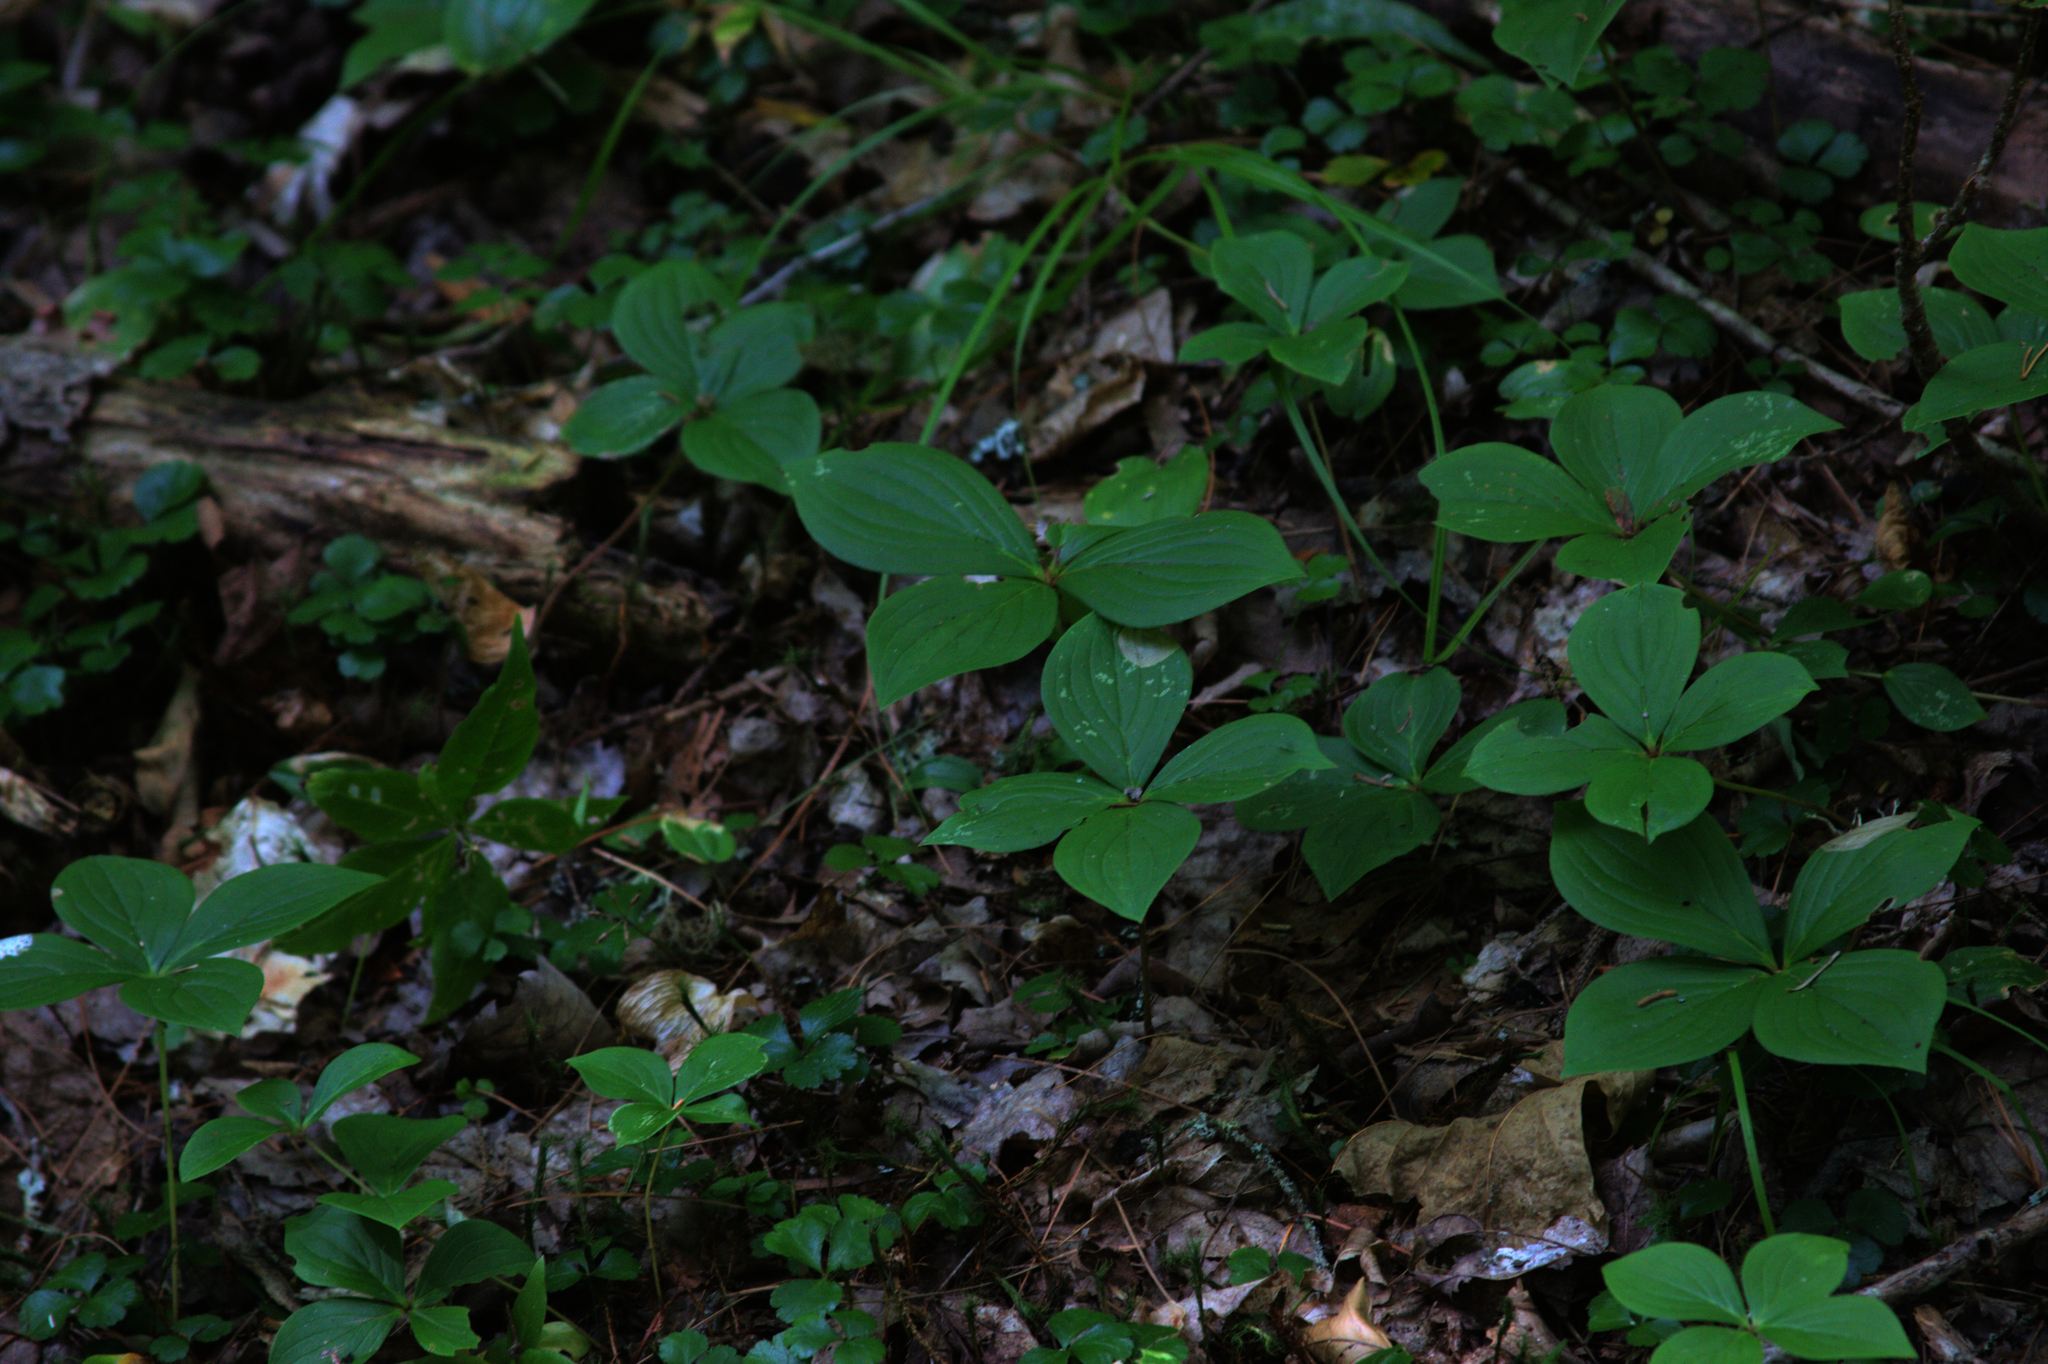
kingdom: Plantae
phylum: Tracheophyta
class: Magnoliopsida
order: Cornales
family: Cornaceae
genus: Cornus
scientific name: Cornus canadensis
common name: Creeping dogwood
